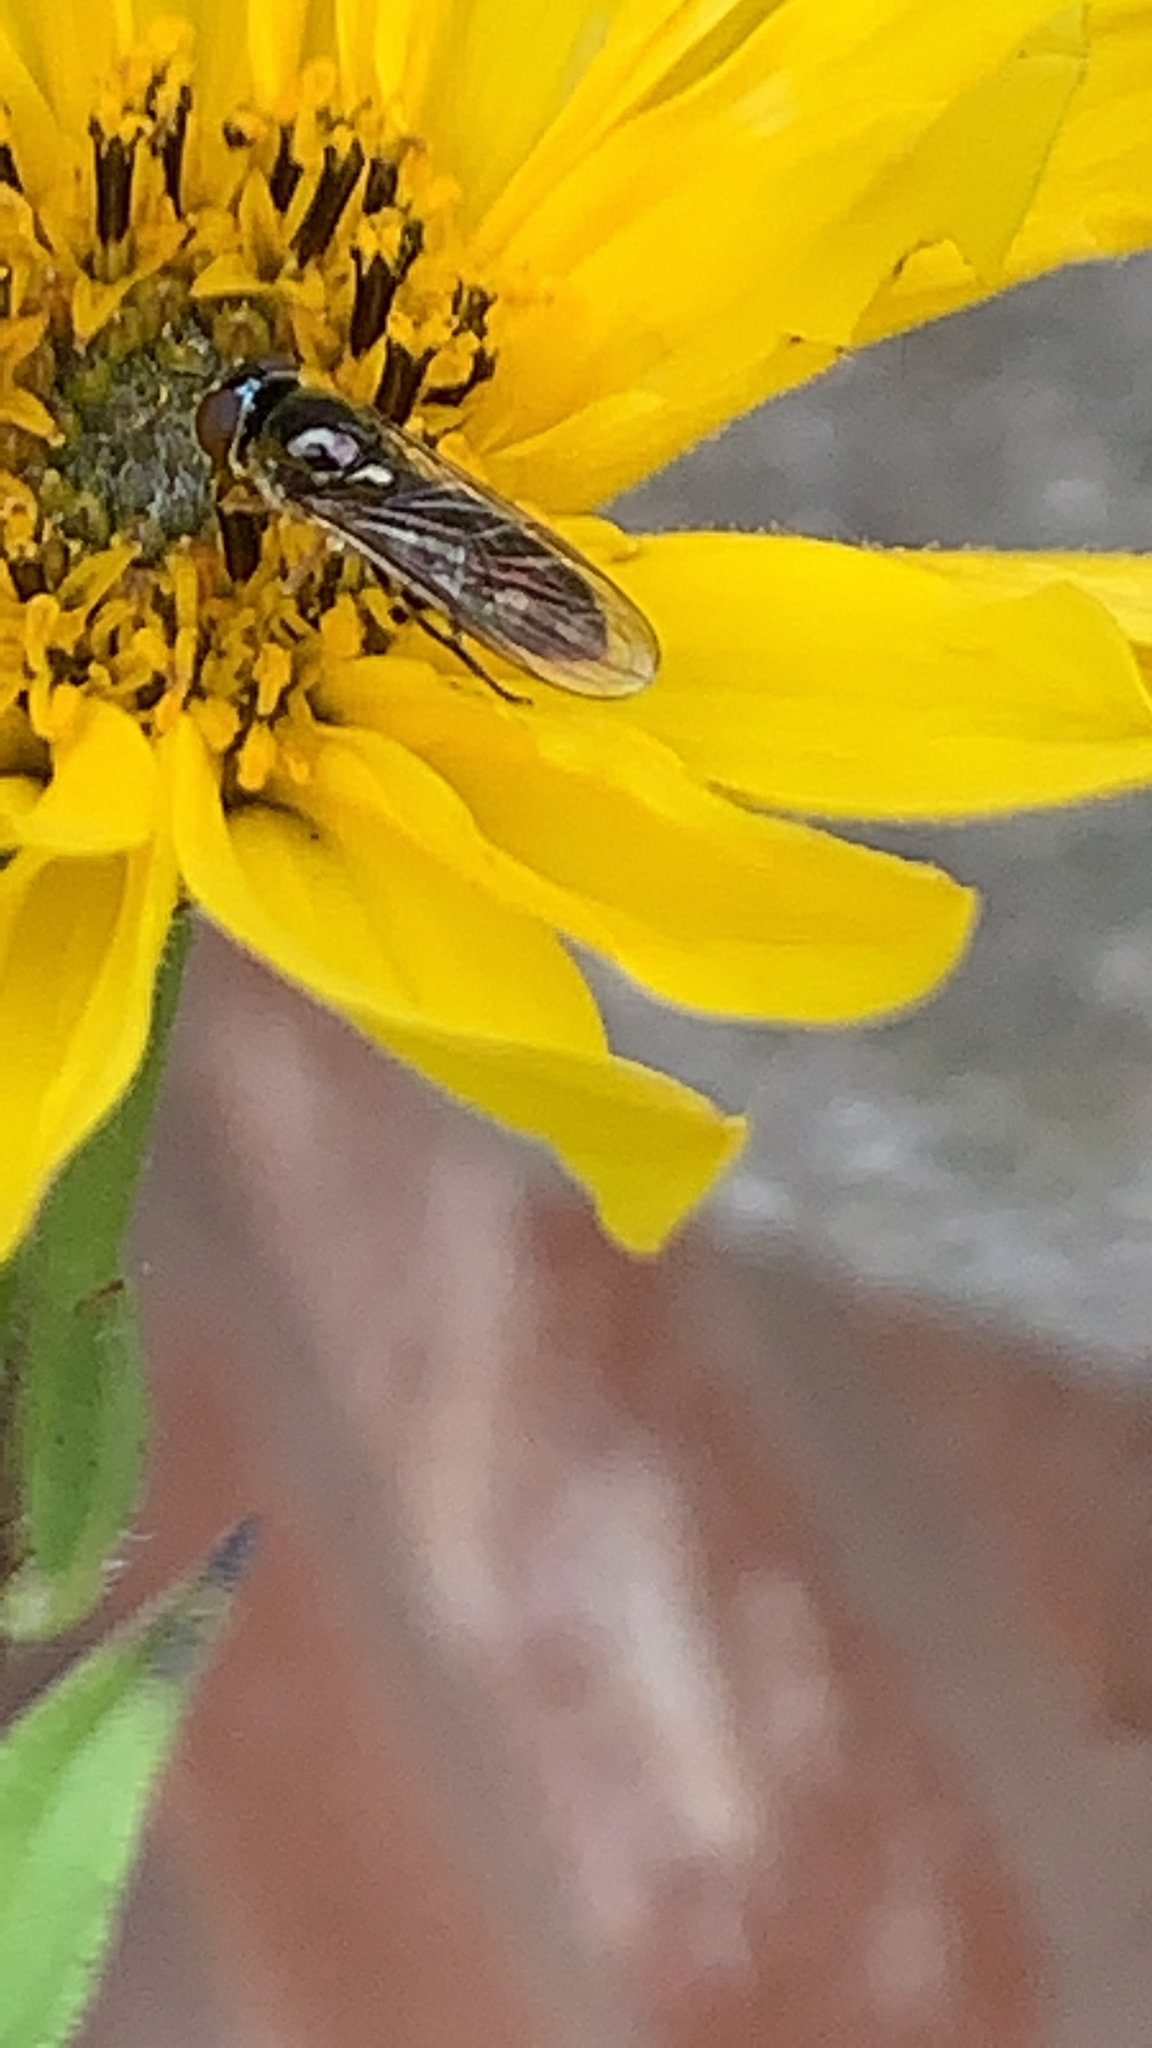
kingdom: Animalia
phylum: Arthropoda
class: Insecta
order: Diptera
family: Syrphidae
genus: Platycheirus
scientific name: Platycheirus
